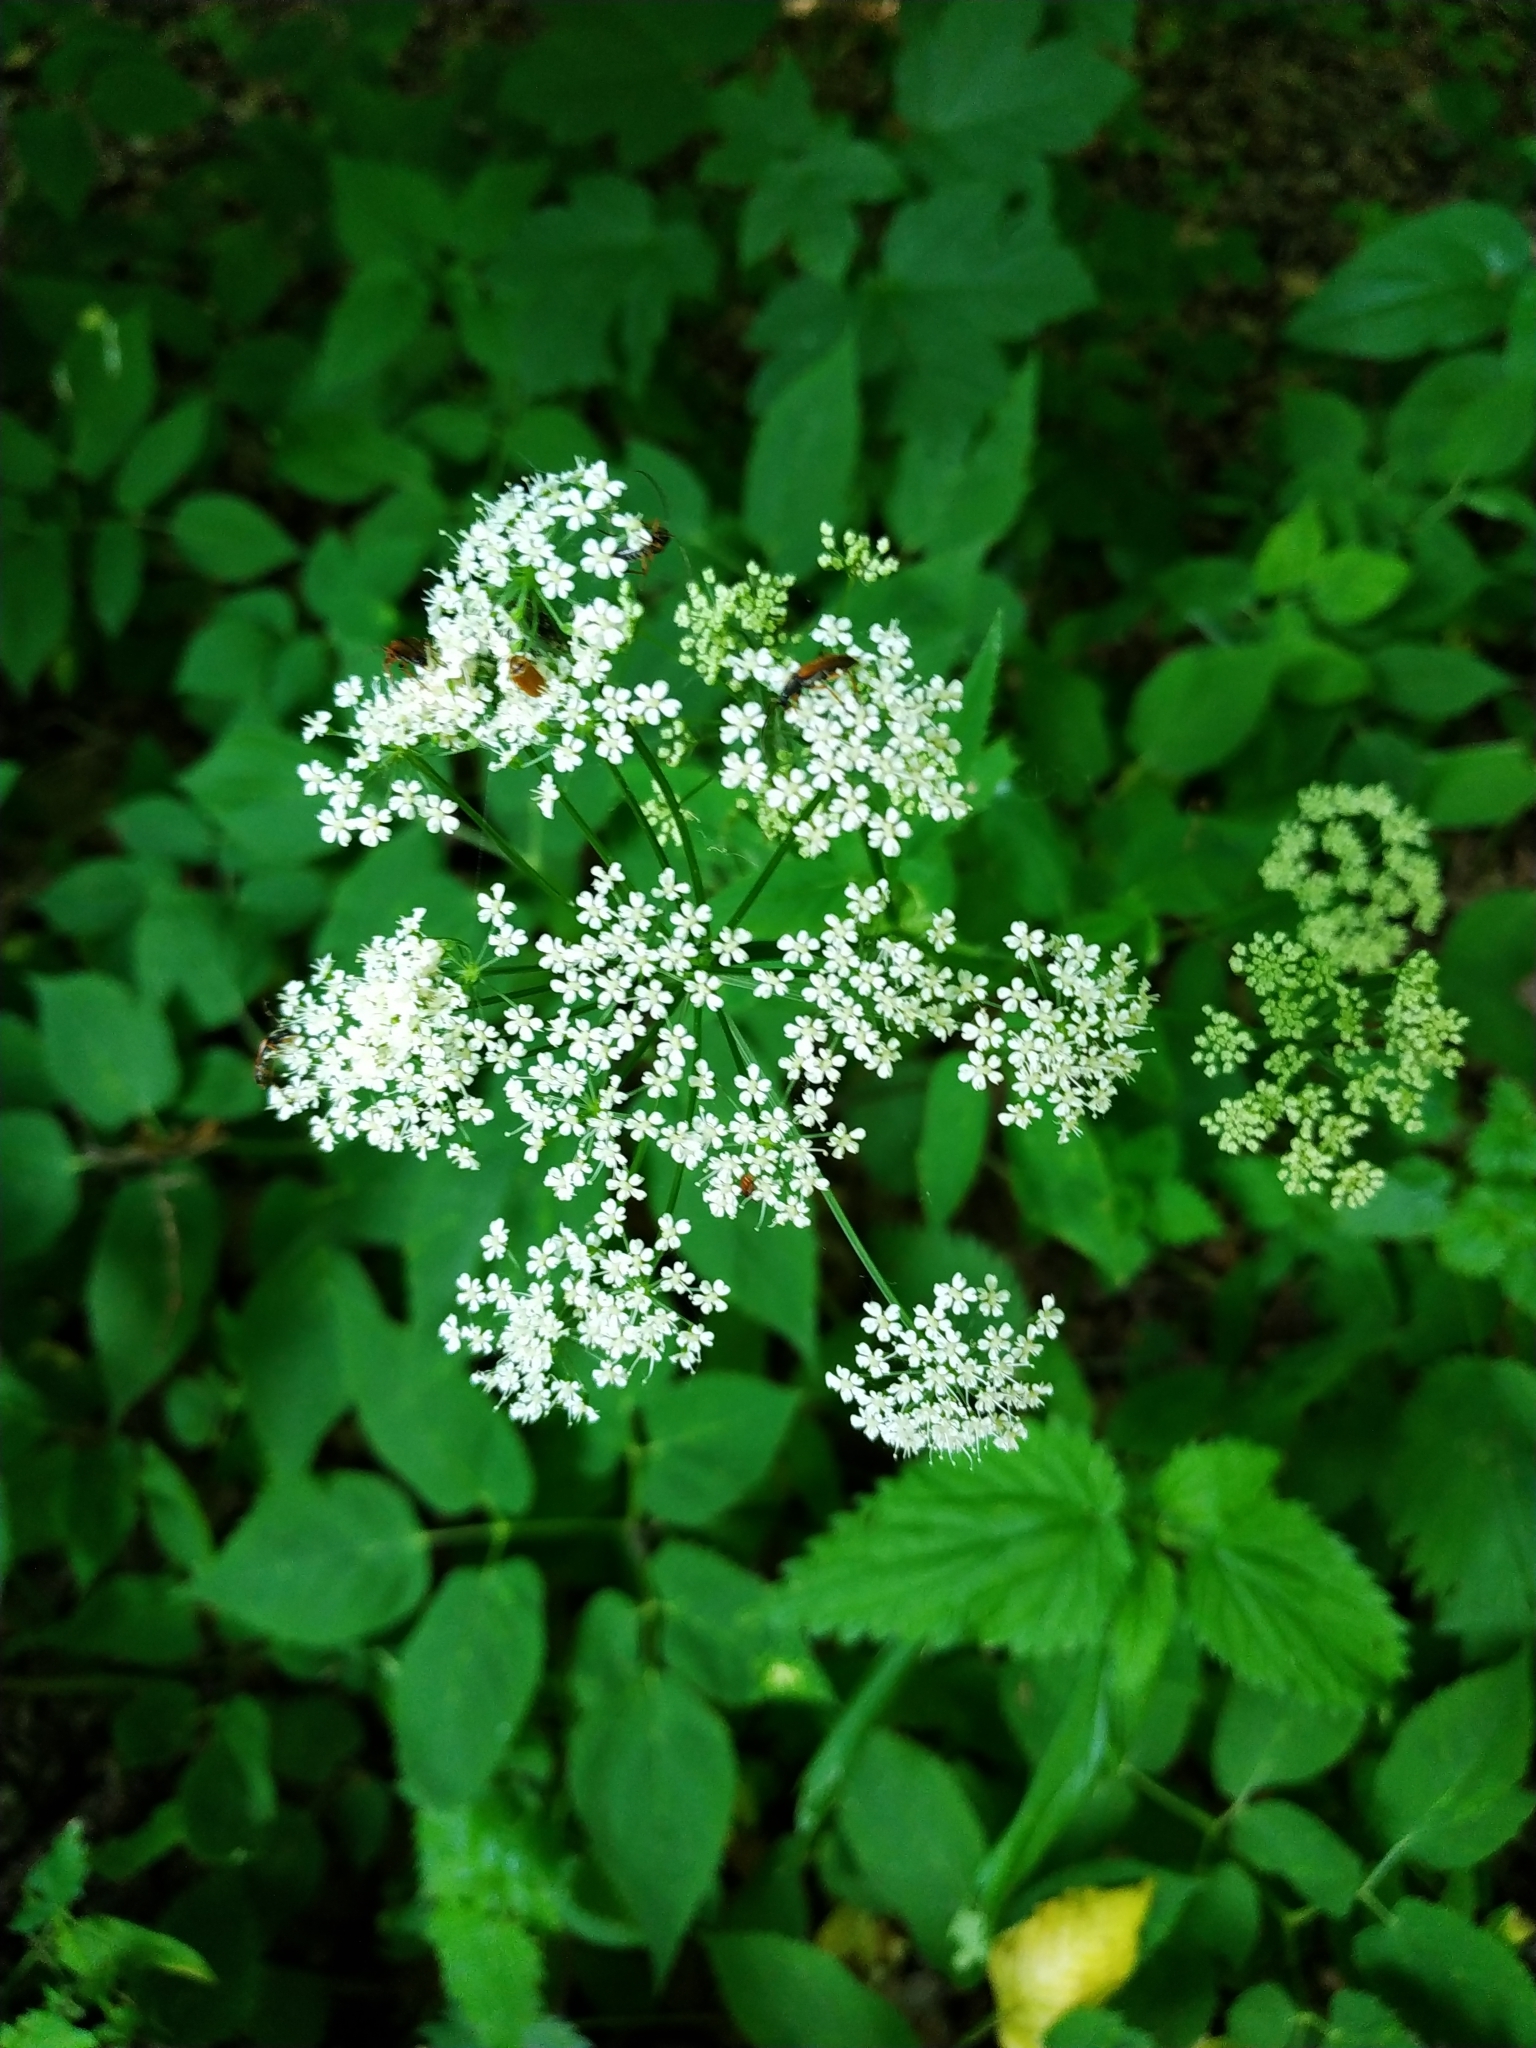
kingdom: Plantae
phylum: Tracheophyta
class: Magnoliopsida
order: Apiales
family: Apiaceae
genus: Aegopodium
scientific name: Aegopodium podagraria
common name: Ground-elder
